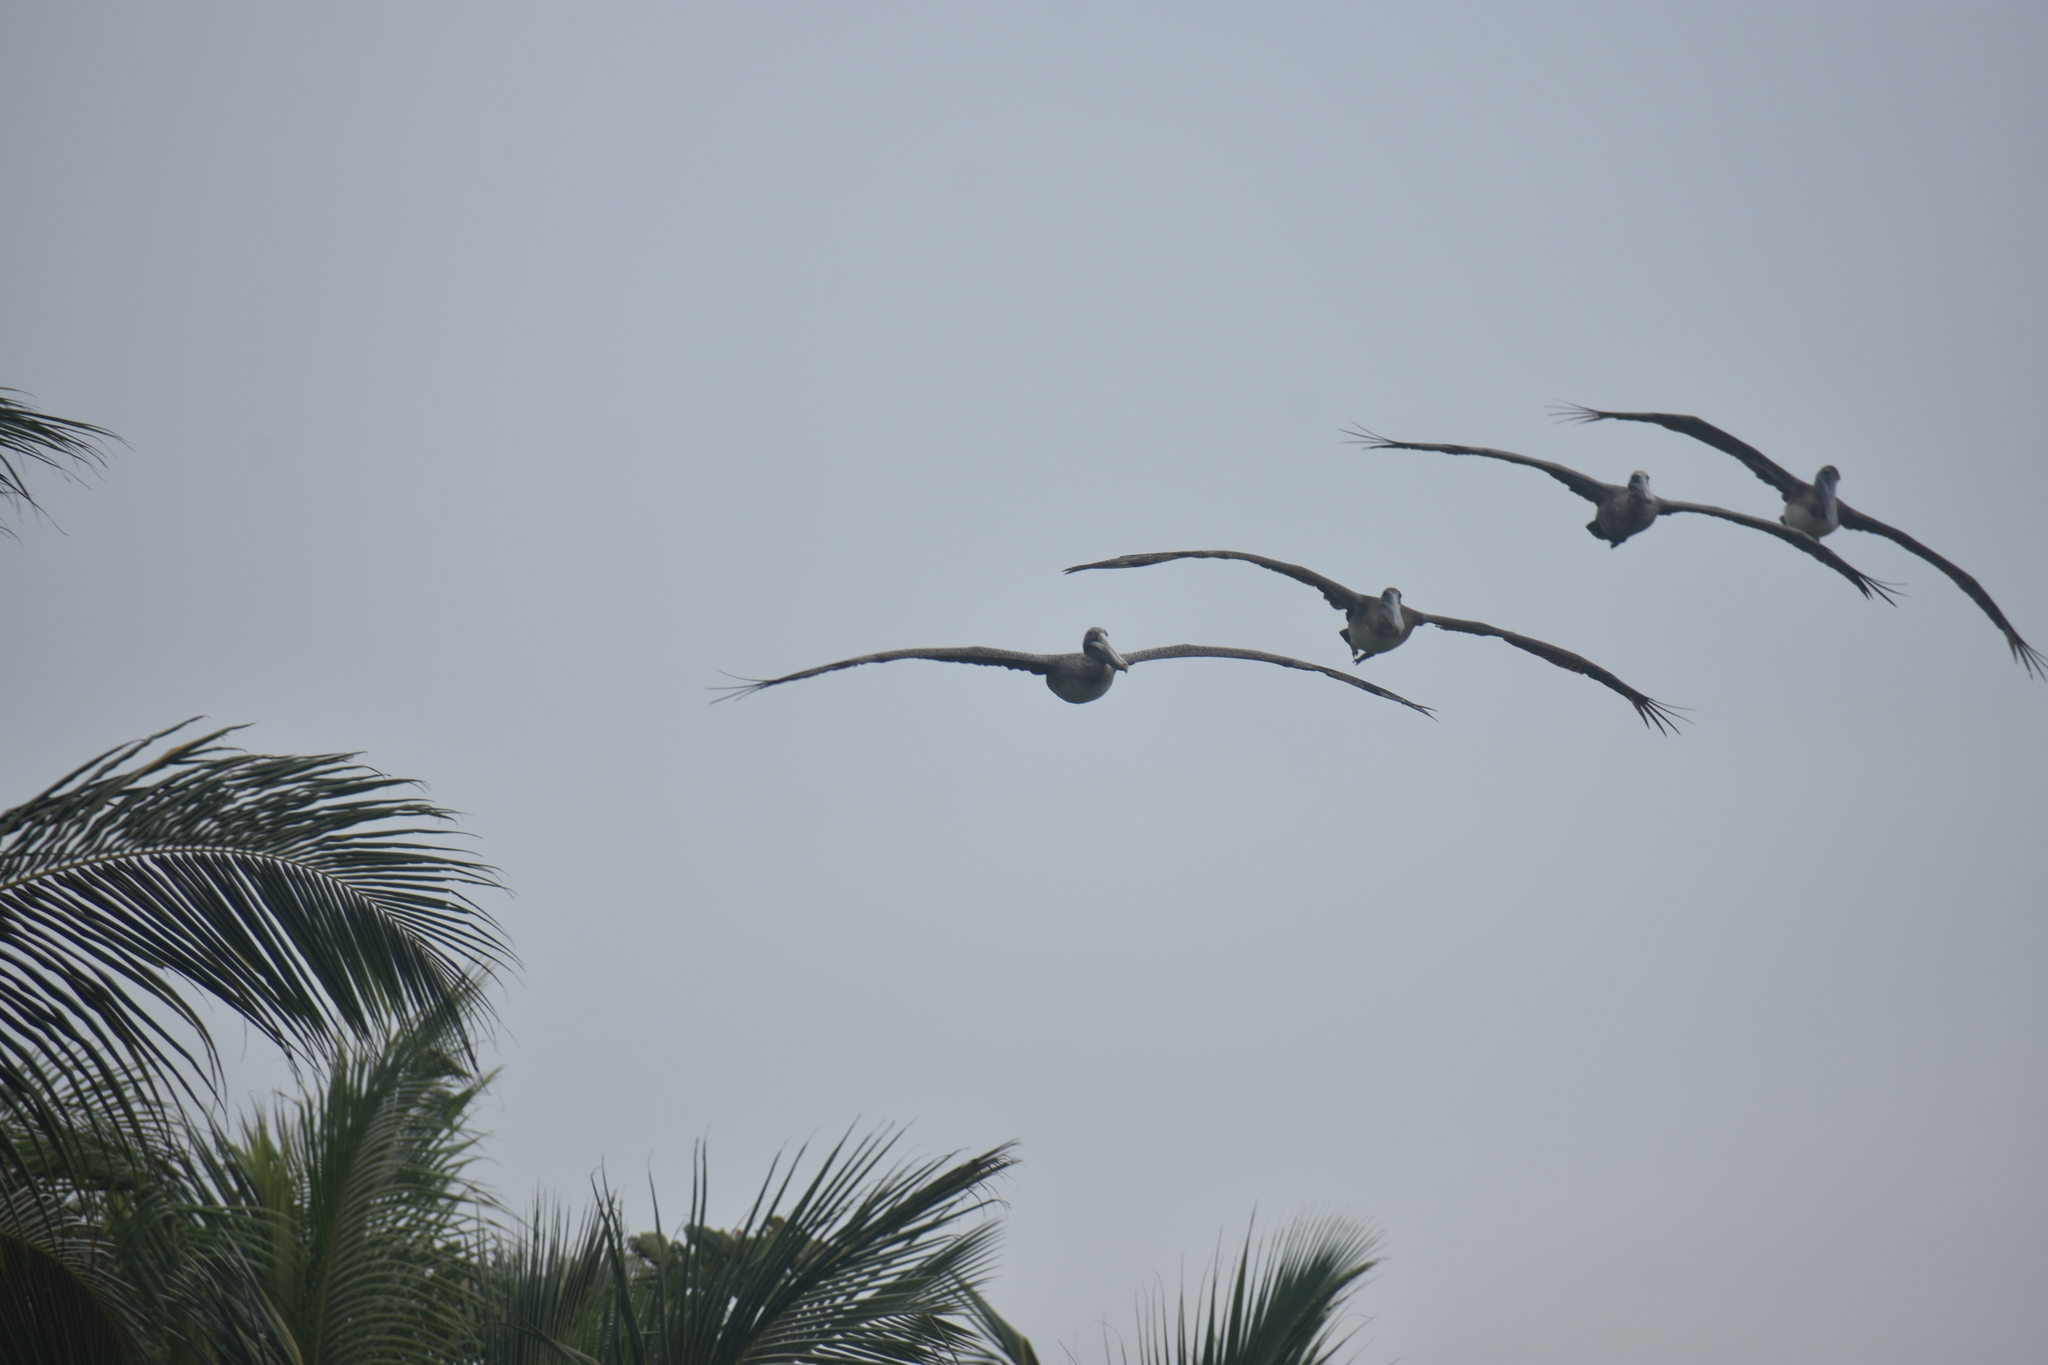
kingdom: Animalia
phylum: Chordata
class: Aves
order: Pelecaniformes
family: Pelecanidae
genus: Pelecanus
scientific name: Pelecanus occidentalis
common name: Brown pelican
